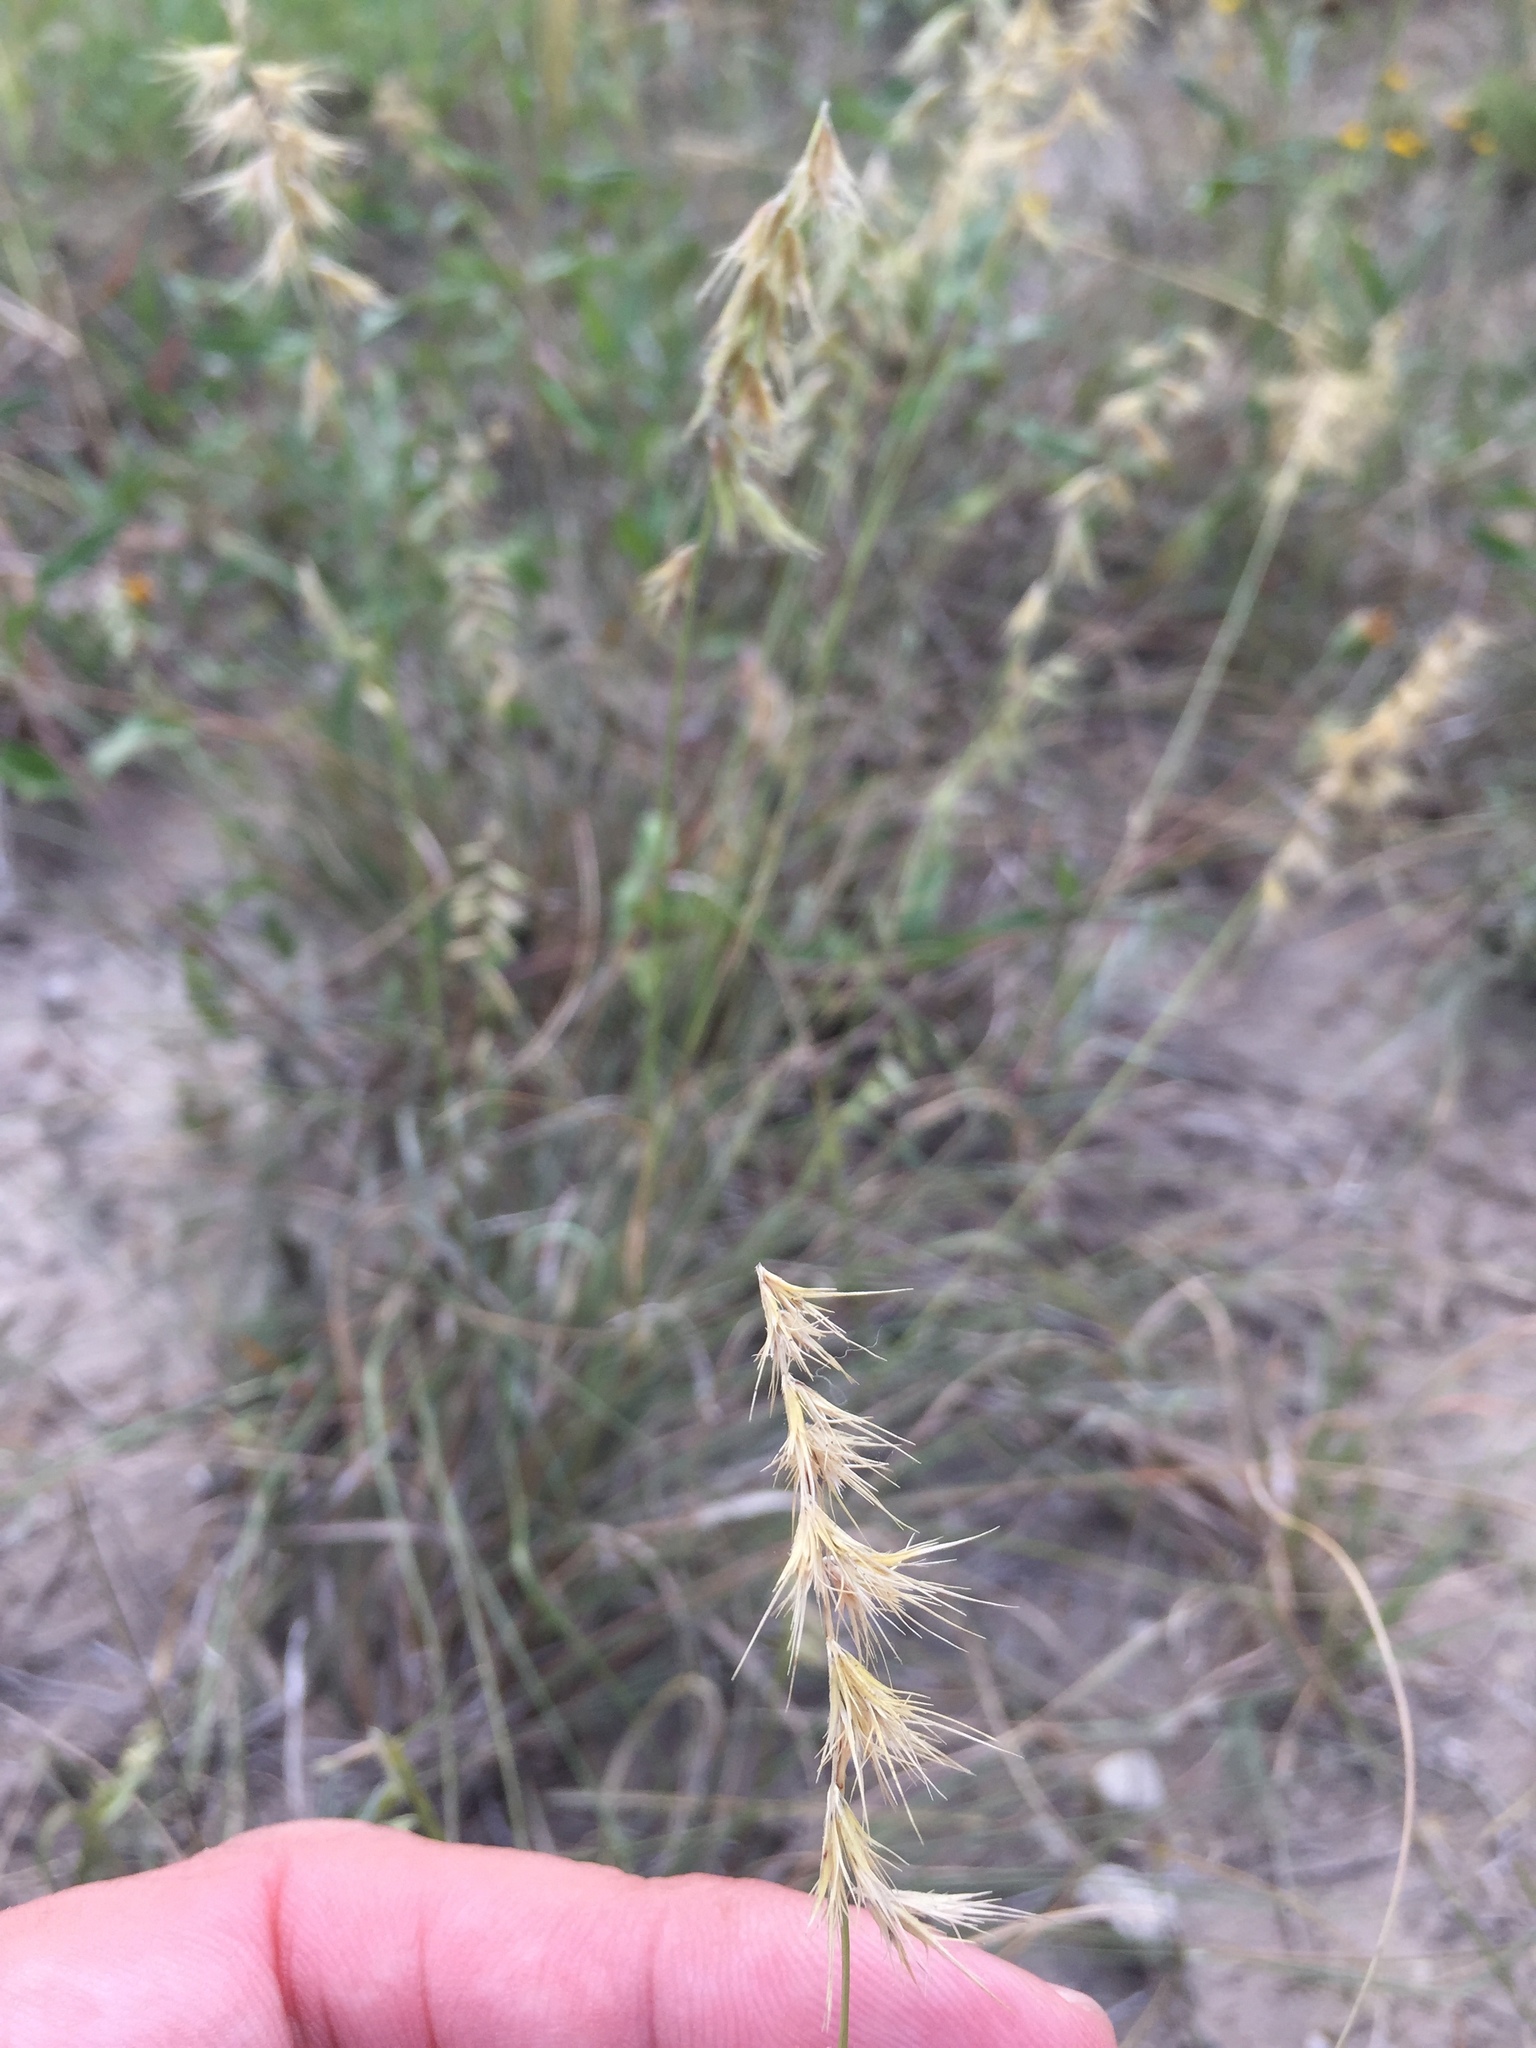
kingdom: Plantae
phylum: Tracheophyta
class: Liliopsida
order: Poales
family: Poaceae
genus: Bouteloua
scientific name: Bouteloua rigidiseta
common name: Texas grama
